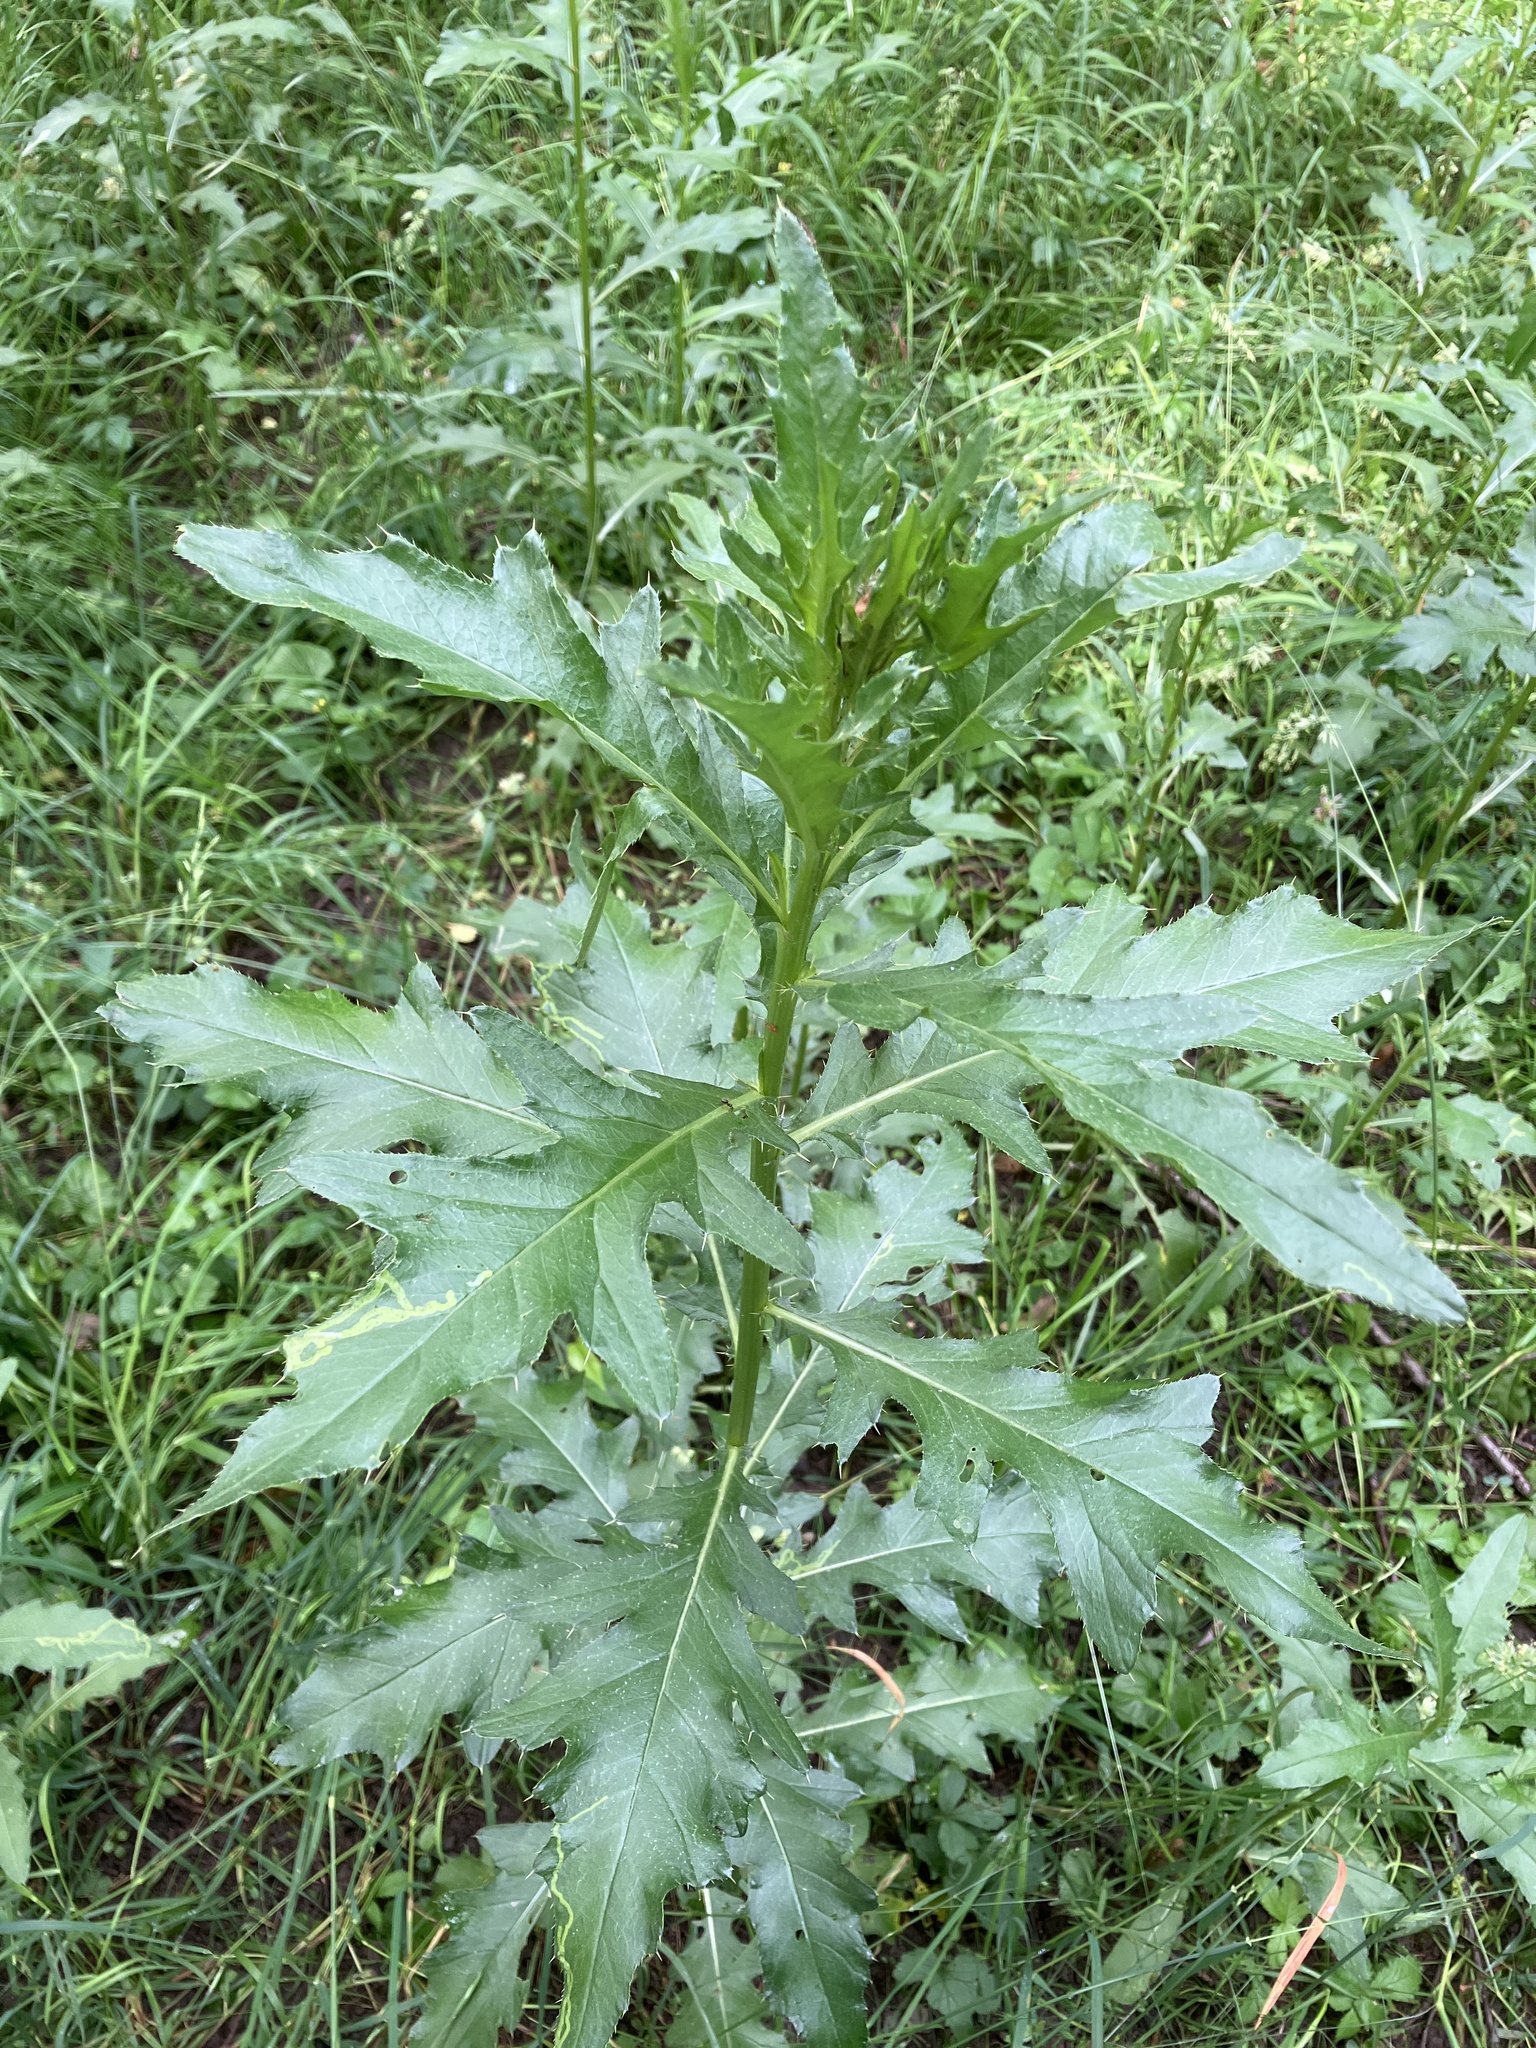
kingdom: Plantae
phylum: Tracheophyta
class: Magnoliopsida
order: Asterales
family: Asteraceae
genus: Cirsium
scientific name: Cirsium arvense
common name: Creeping thistle
